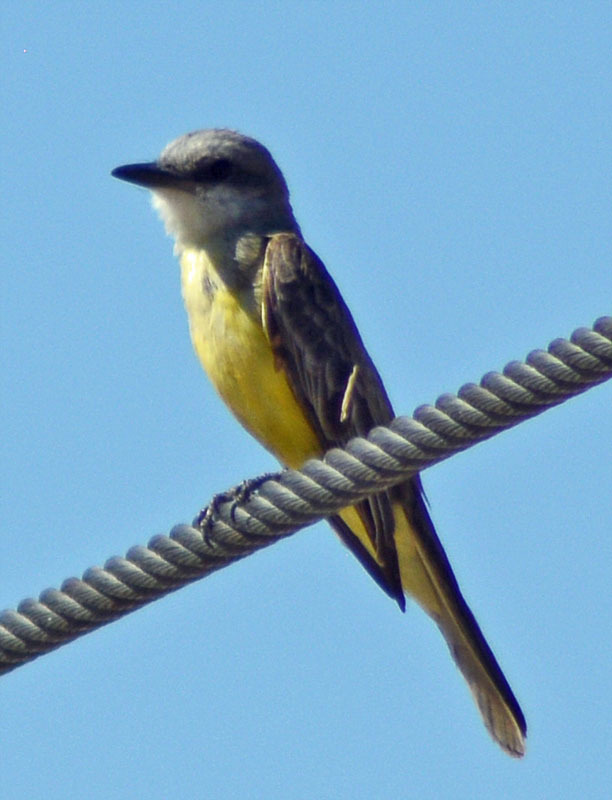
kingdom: Animalia
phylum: Chordata
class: Aves
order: Passeriformes
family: Tyrannidae
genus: Tyrannus
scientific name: Tyrannus melancholicus
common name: Tropical kingbird
